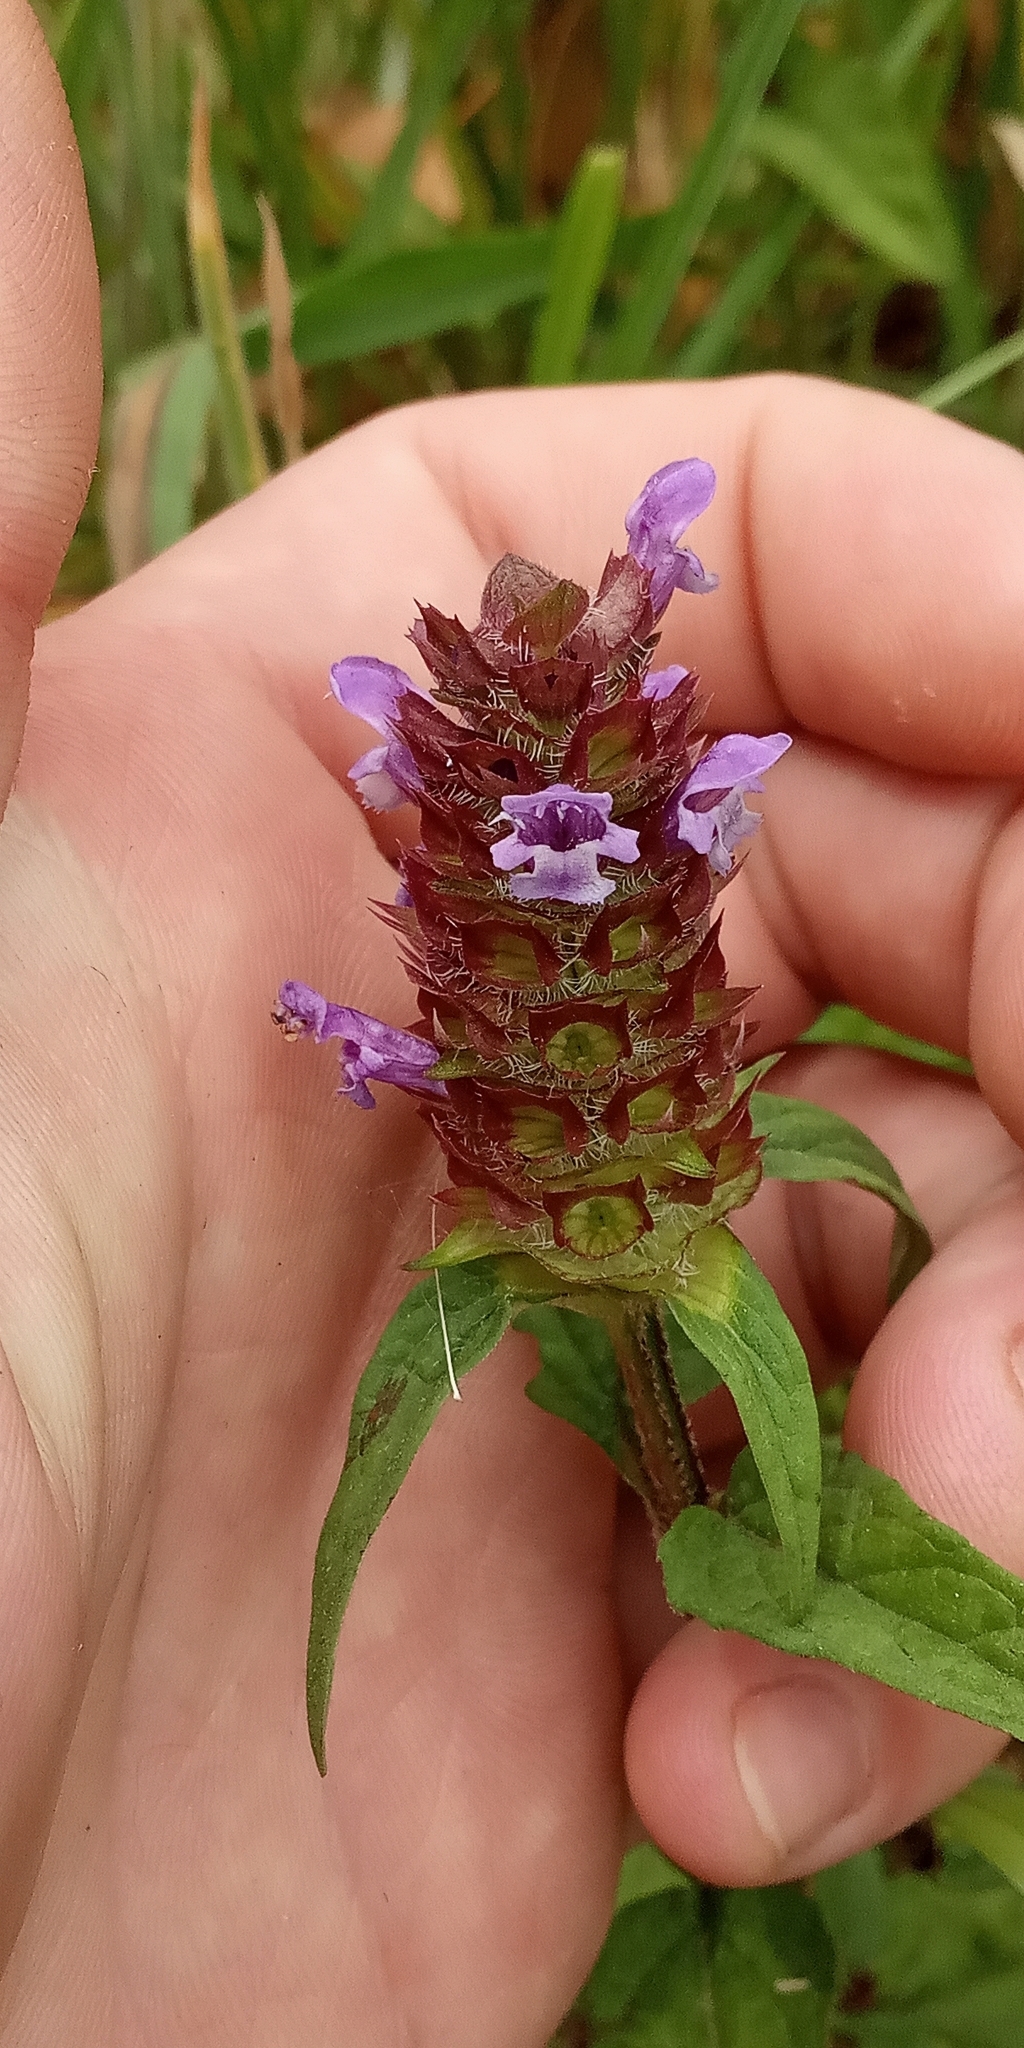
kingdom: Plantae
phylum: Tracheophyta
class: Magnoliopsida
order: Lamiales
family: Lamiaceae
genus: Prunella
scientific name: Prunella vulgaris
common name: Heal-all
